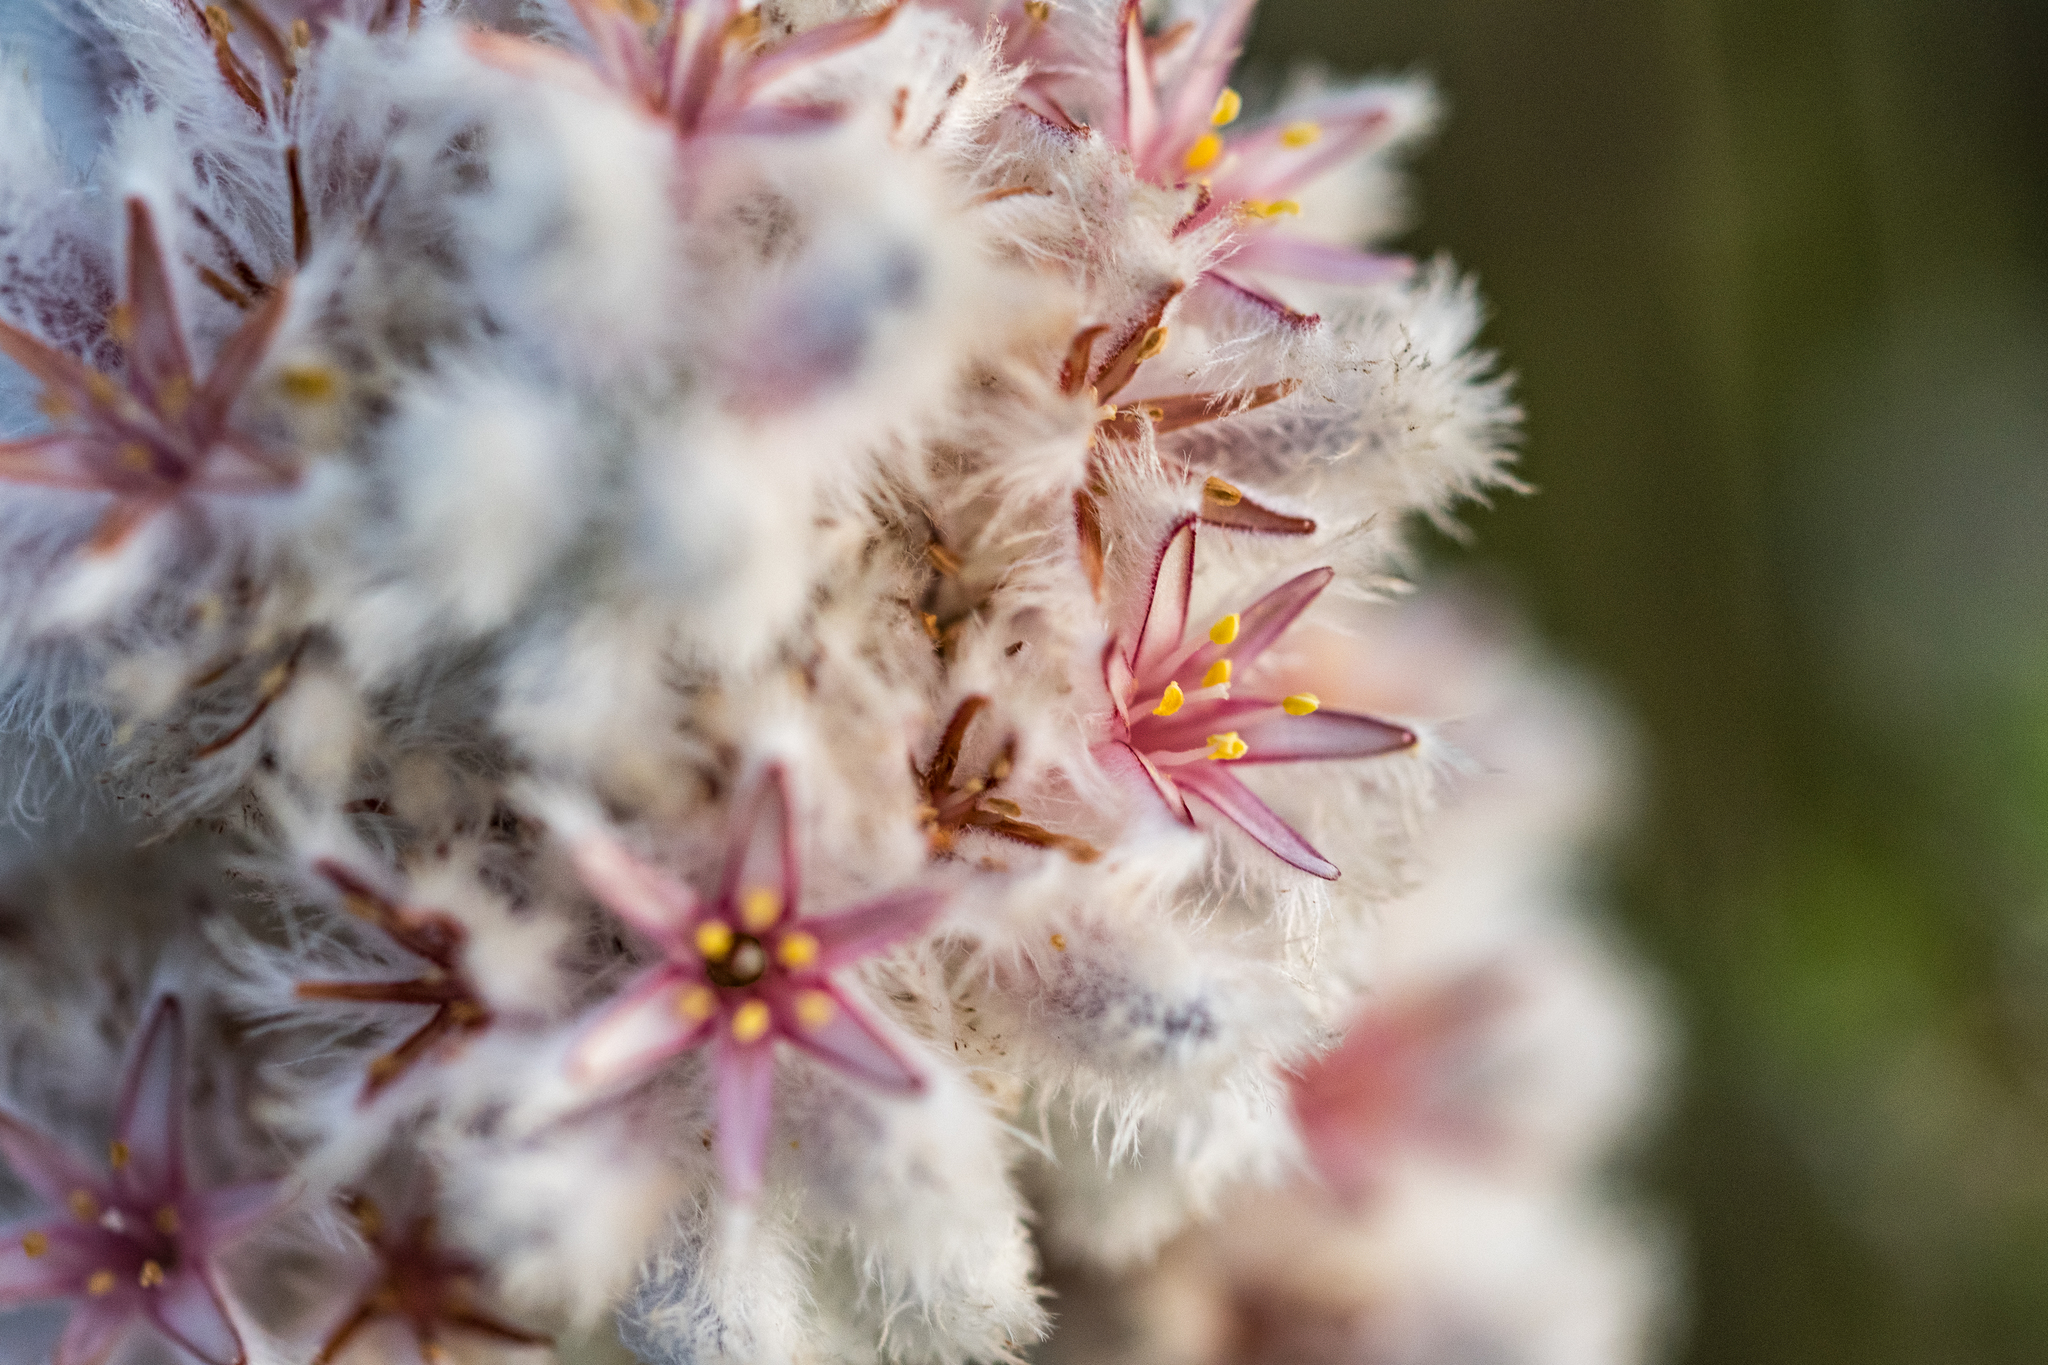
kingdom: Plantae
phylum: Tracheophyta
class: Liliopsida
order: Asparagales
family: Lanariaceae
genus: Lanaria
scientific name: Lanaria lanata
